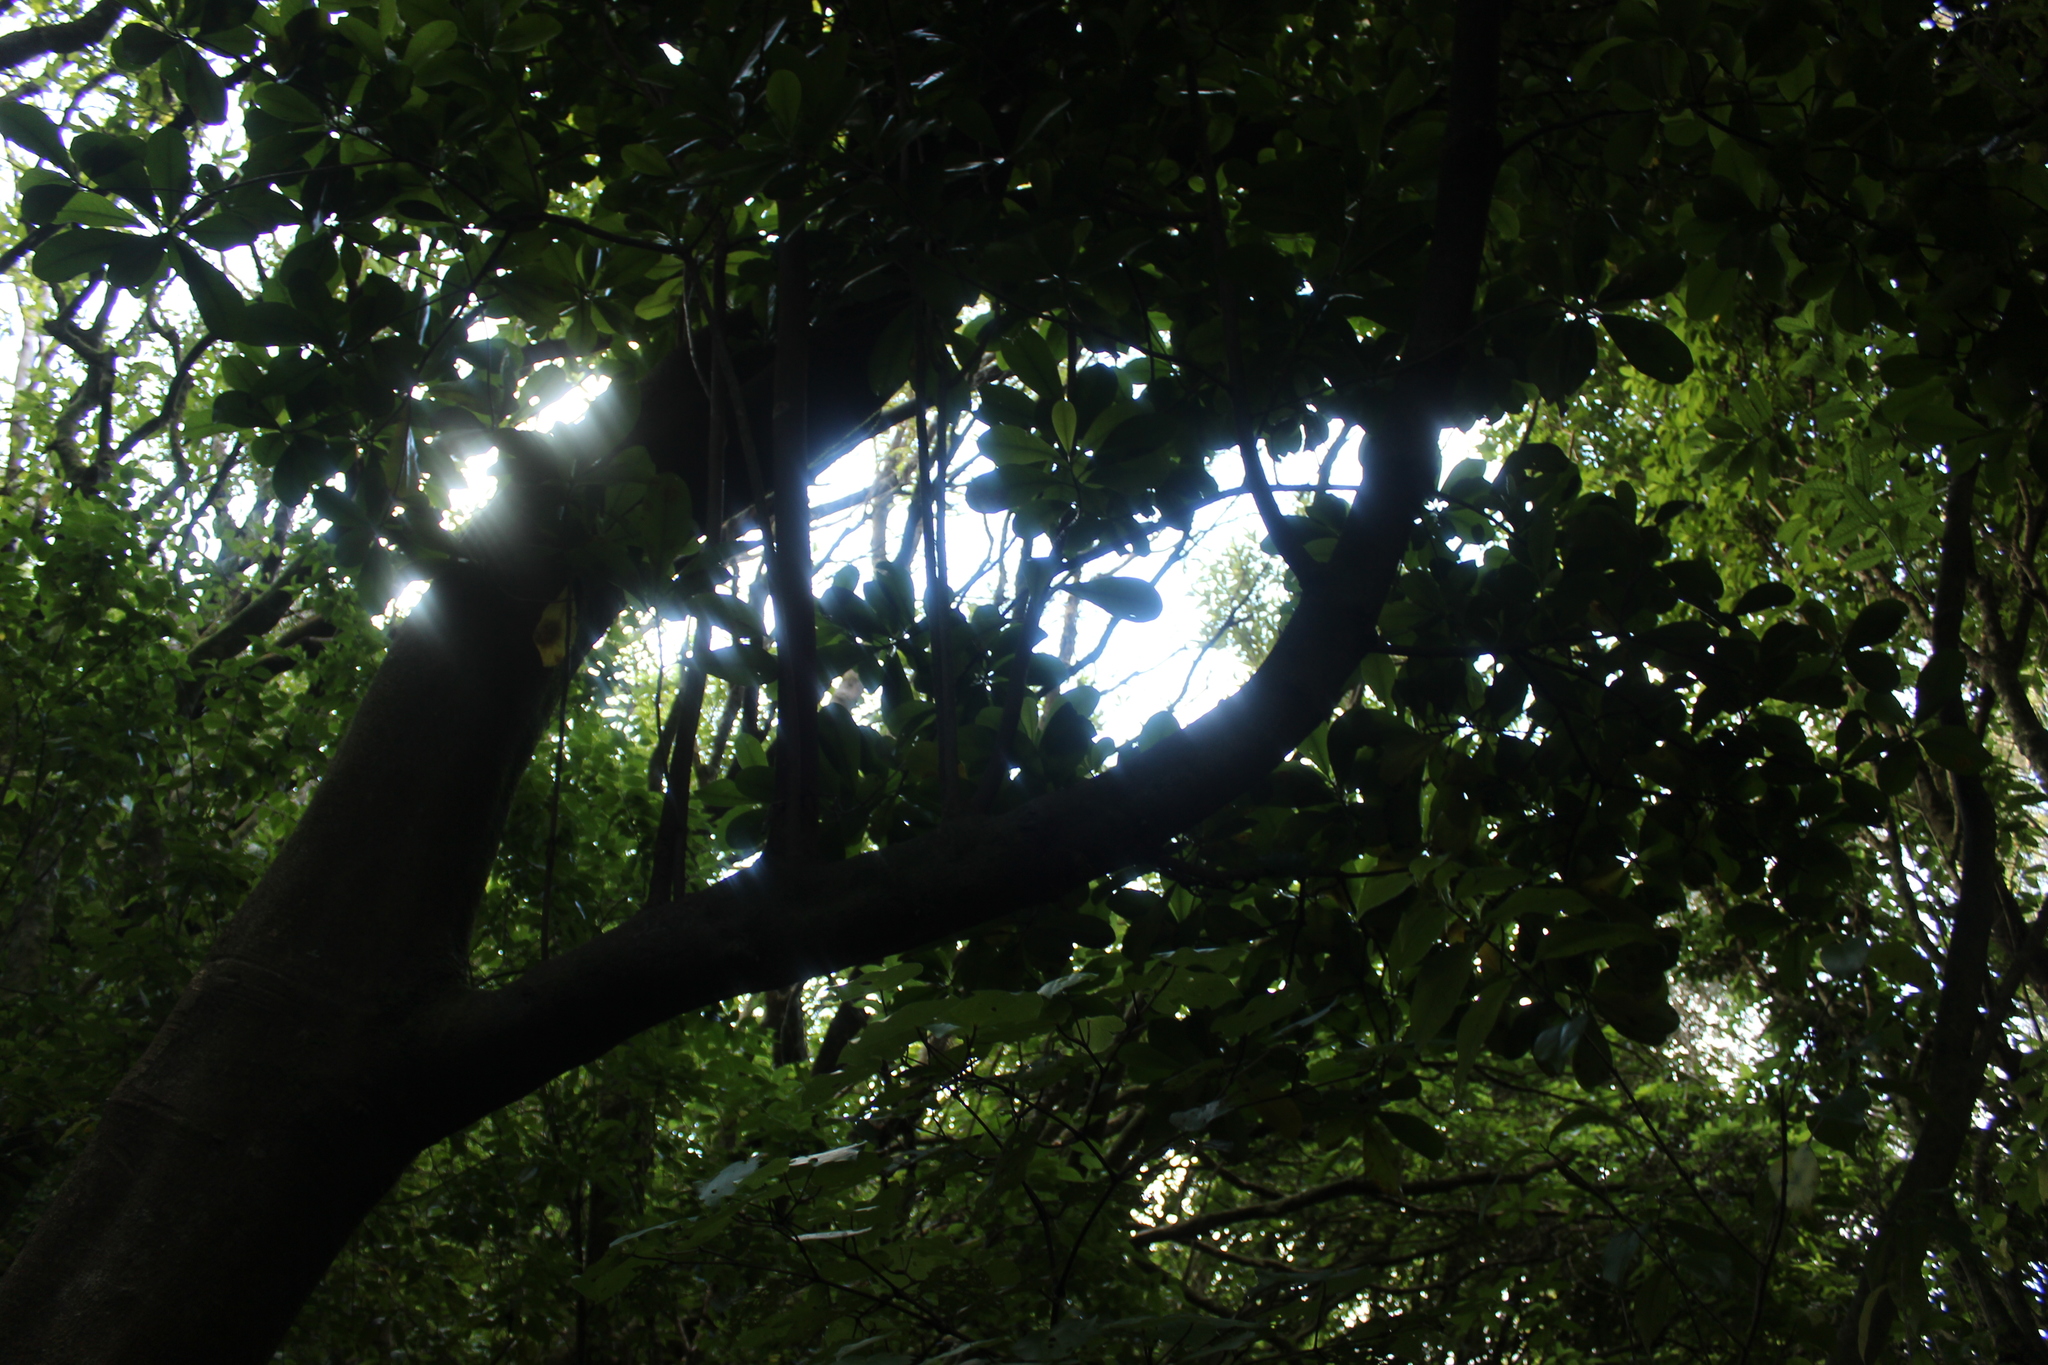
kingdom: Plantae
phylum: Tracheophyta
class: Magnoliopsida
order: Cucurbitales
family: Corynocarpaceae
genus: Corynocarpus
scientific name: Corynocarpus laevigatus
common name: New zealand laurel
